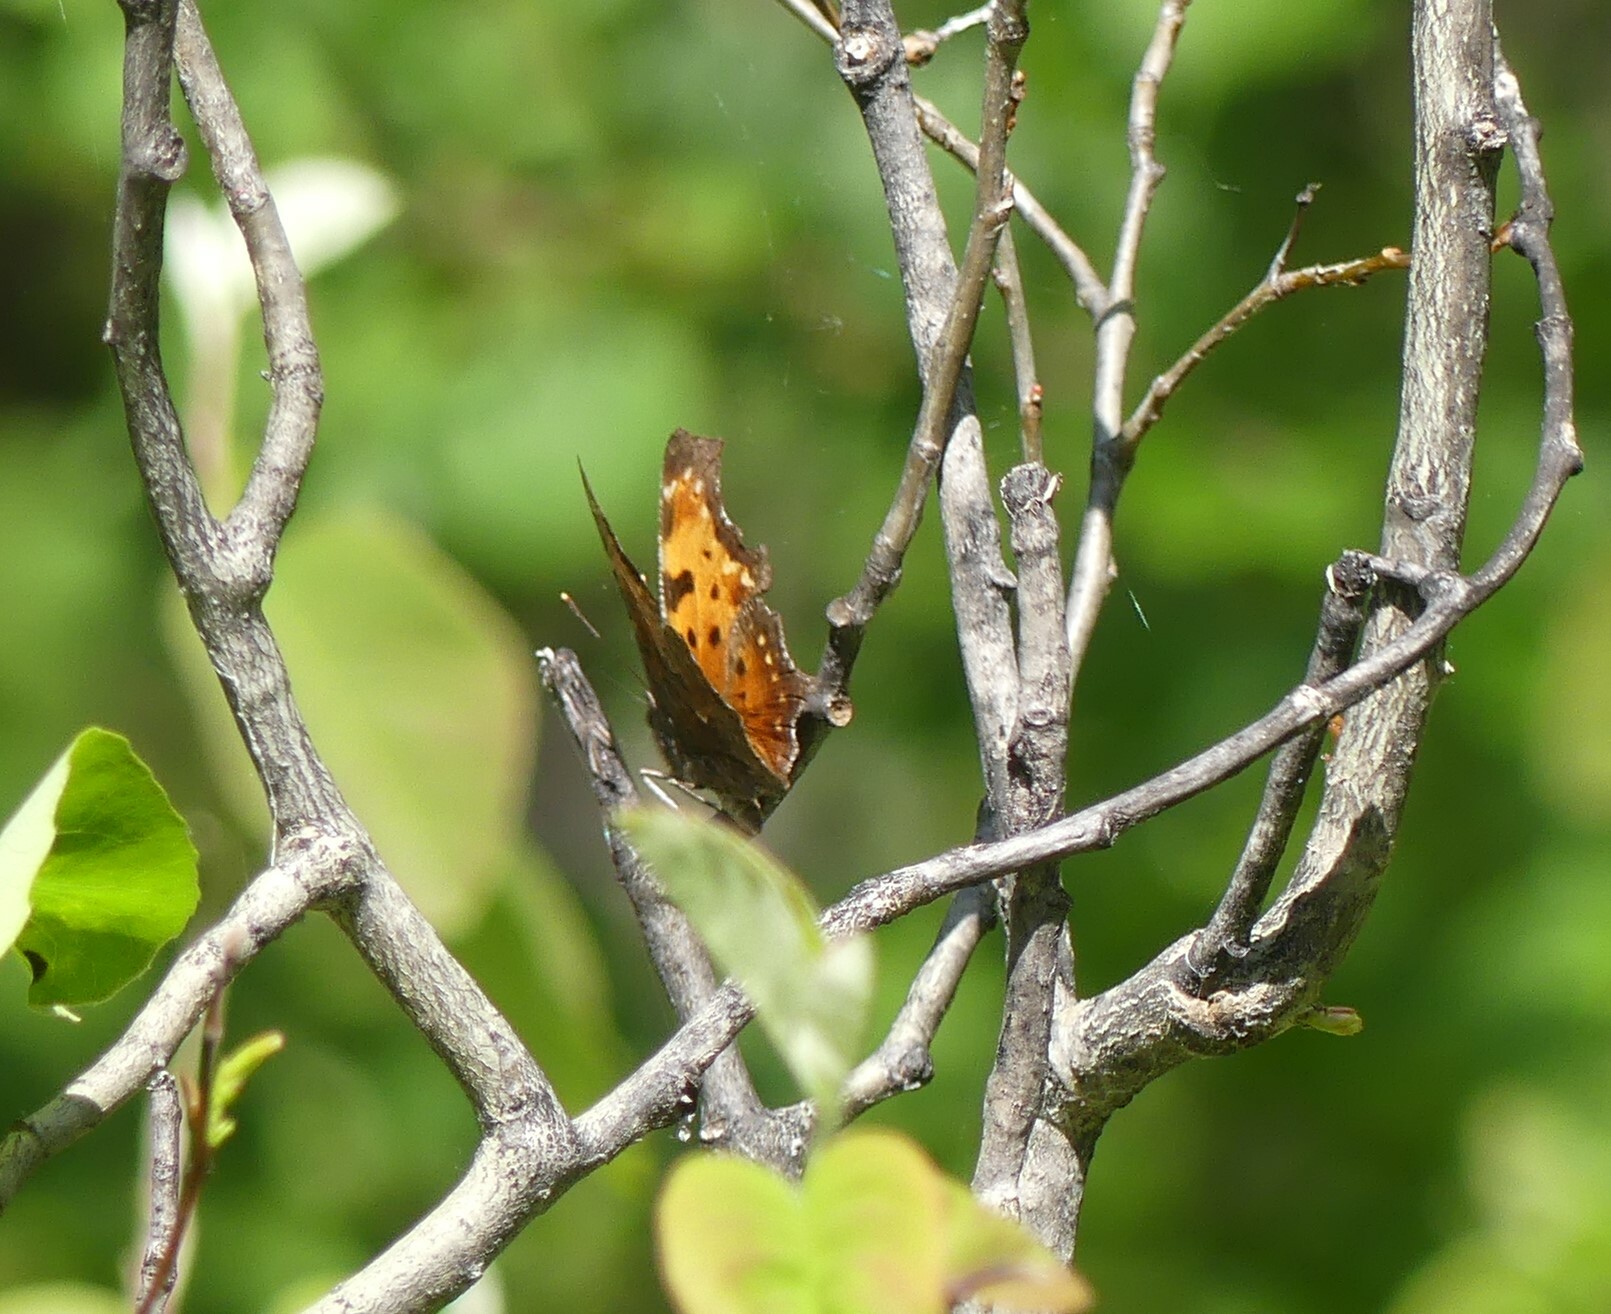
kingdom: Animalia
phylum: Arthropoda
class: Insecta
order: Lepidoptera
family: Nymphalidae
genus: Polygonia
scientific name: Polygonia progne
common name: Gray comma
